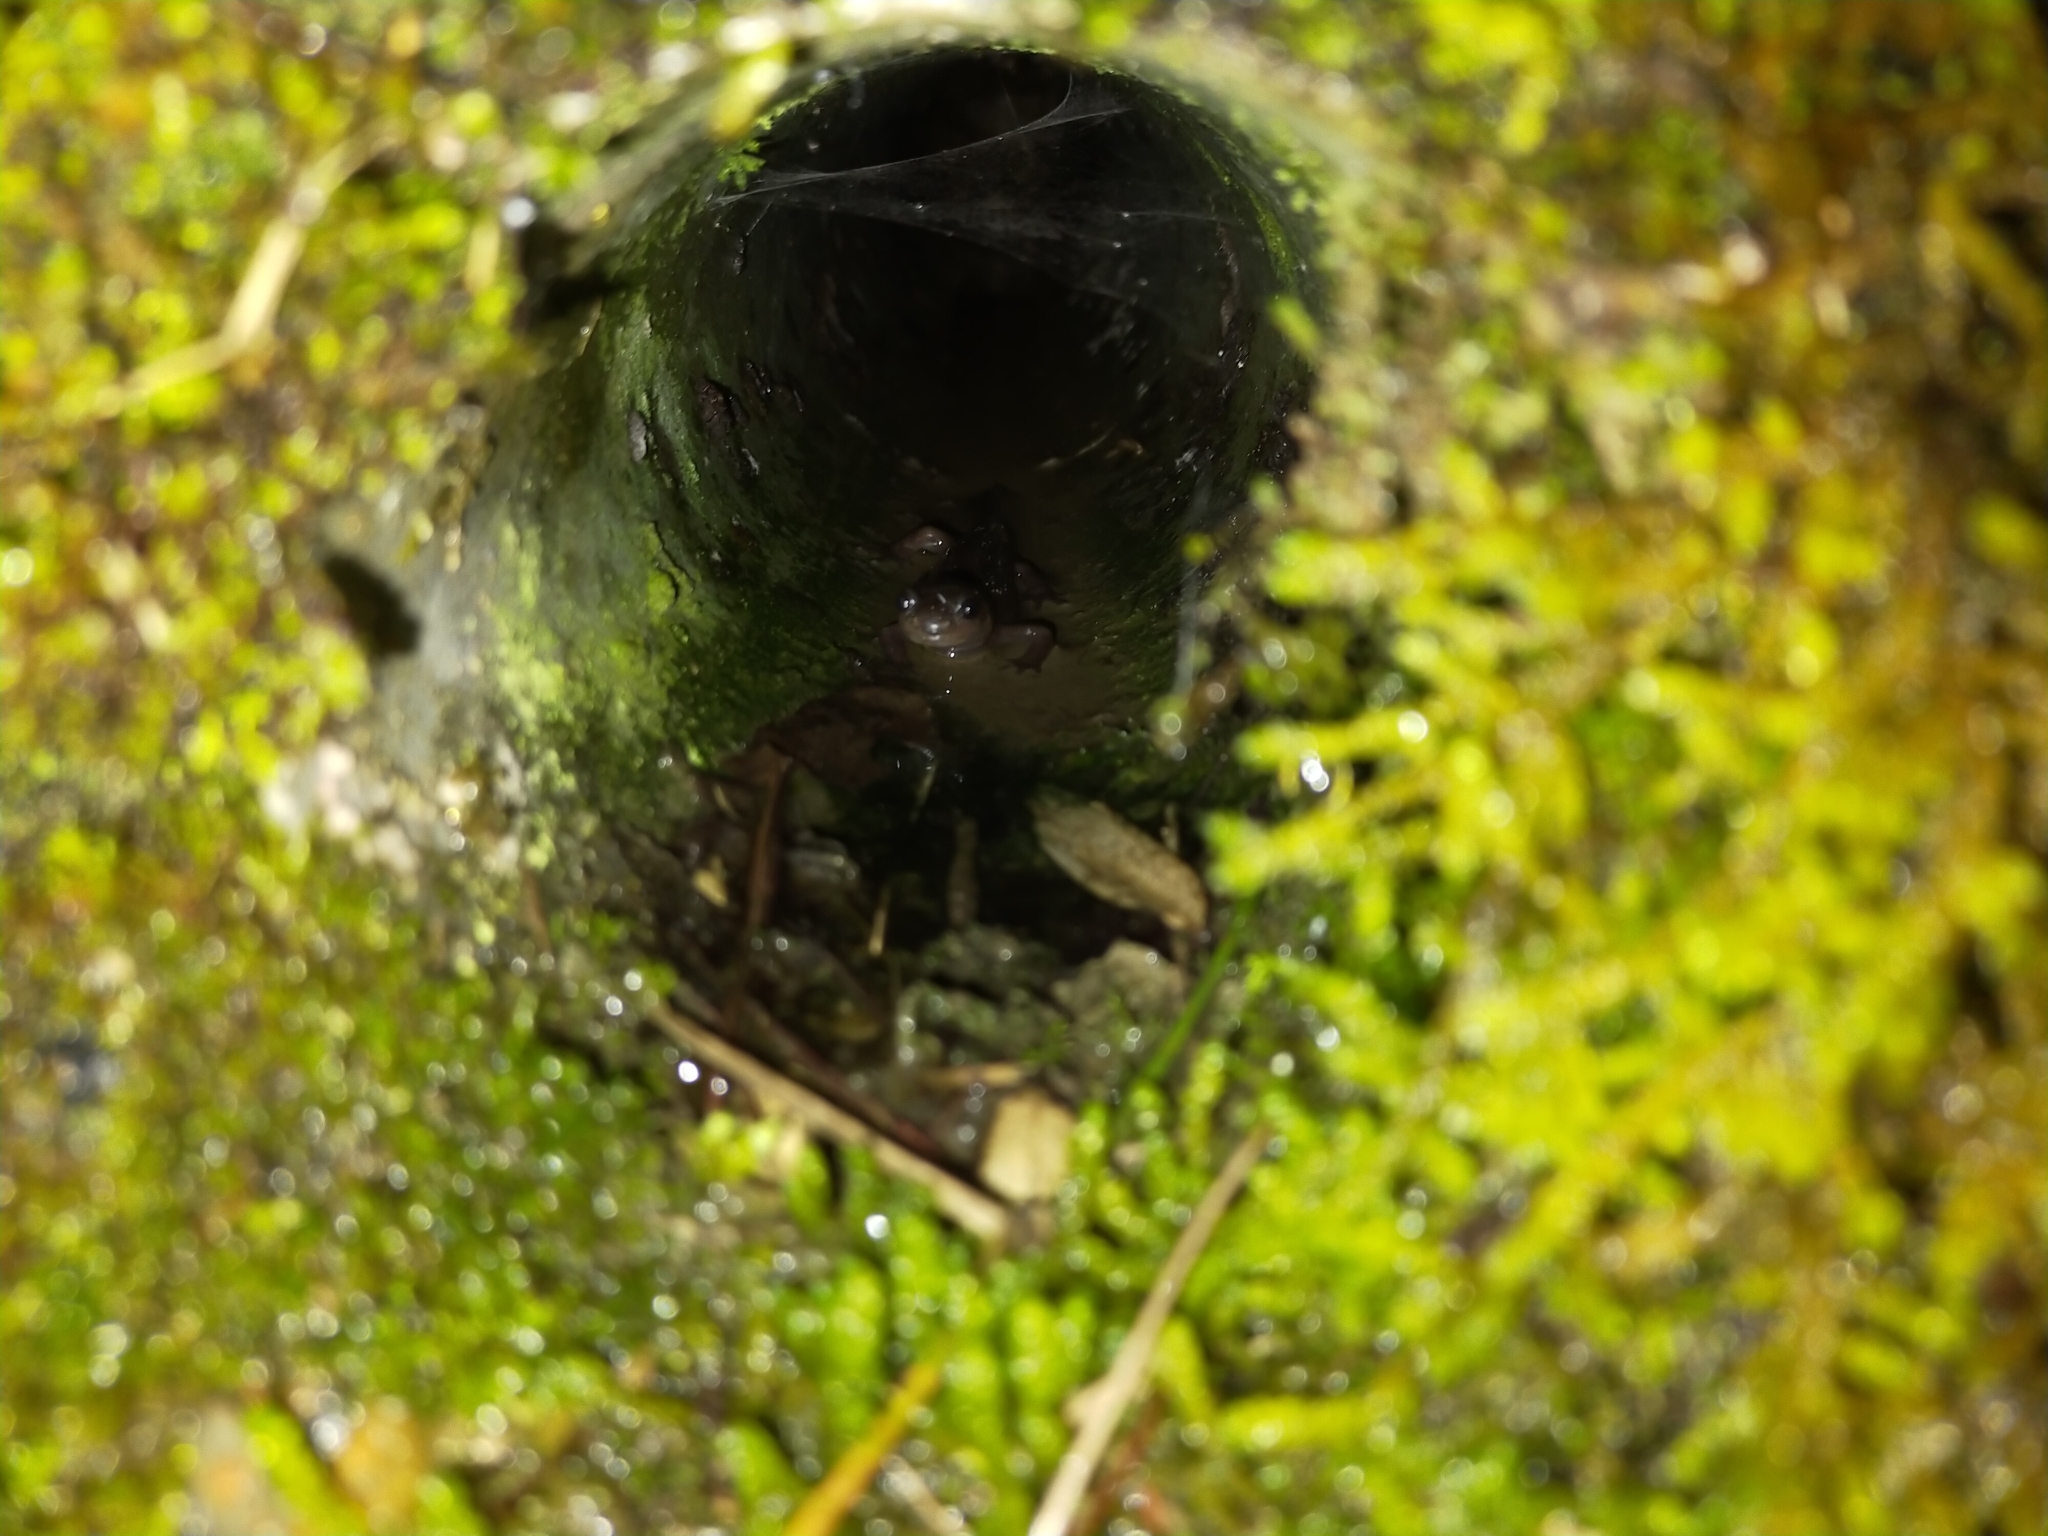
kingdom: Animalia
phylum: Chordata
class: Amphibia
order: Caudata
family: Hynobiidae
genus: Hynobius
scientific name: Hynobius arisanensis
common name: Alisan's salamander
